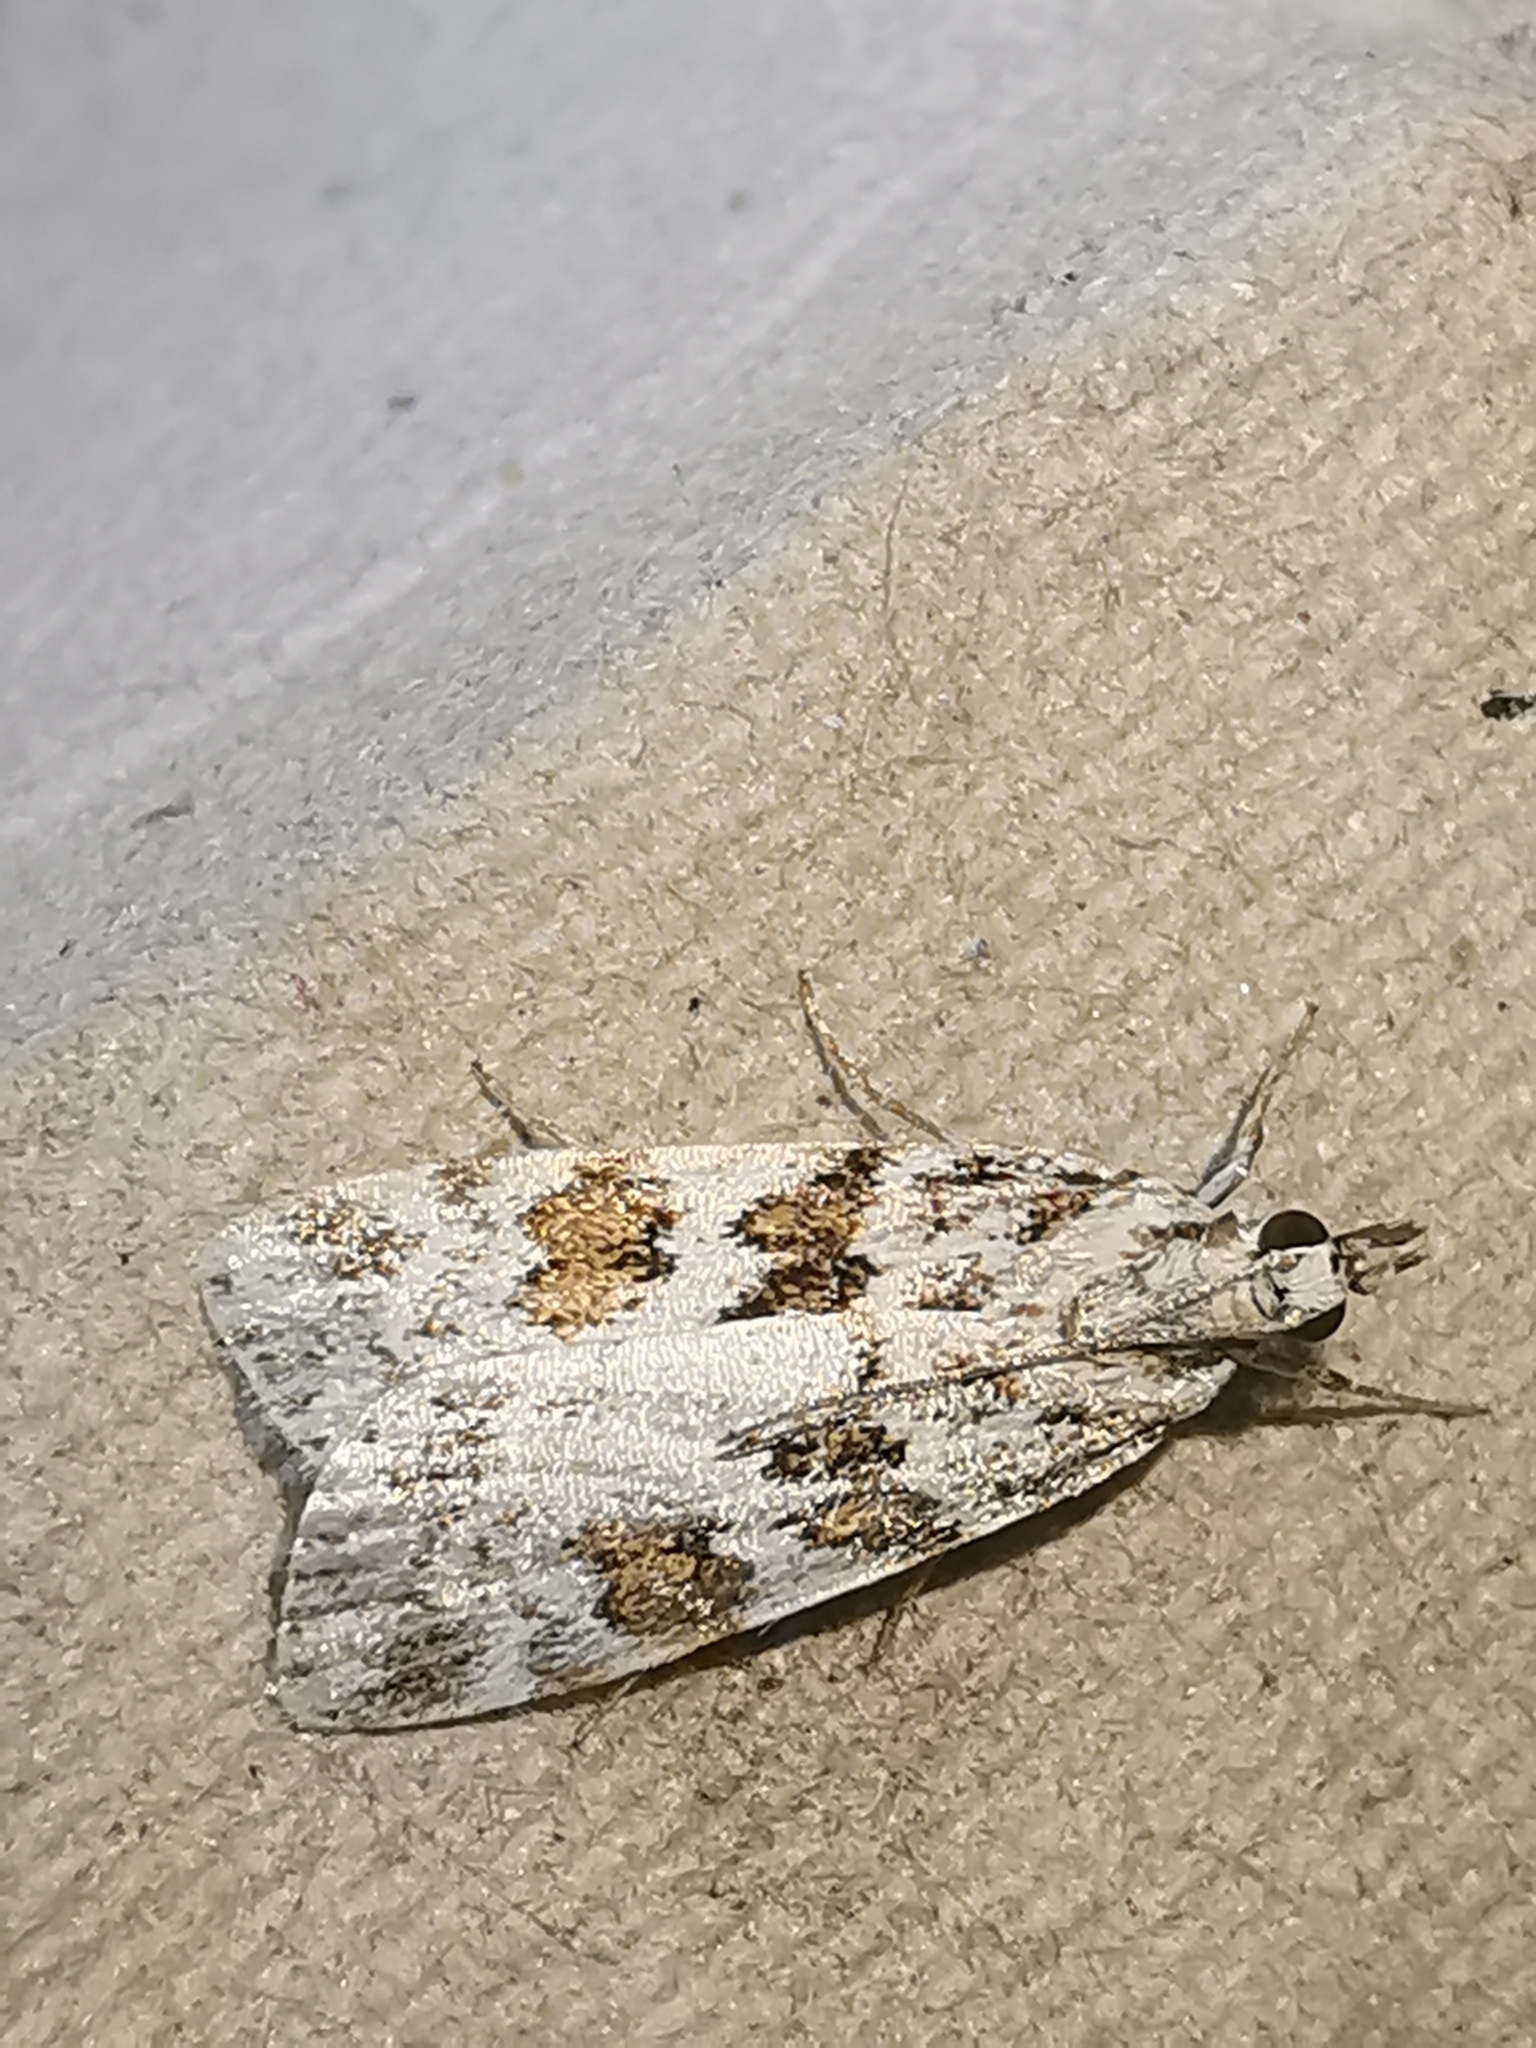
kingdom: Animalia
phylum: Arthropoda
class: Insecta
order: Lepidoptera
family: Crambidae
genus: Scoparia
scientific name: Scoparia pyralella
